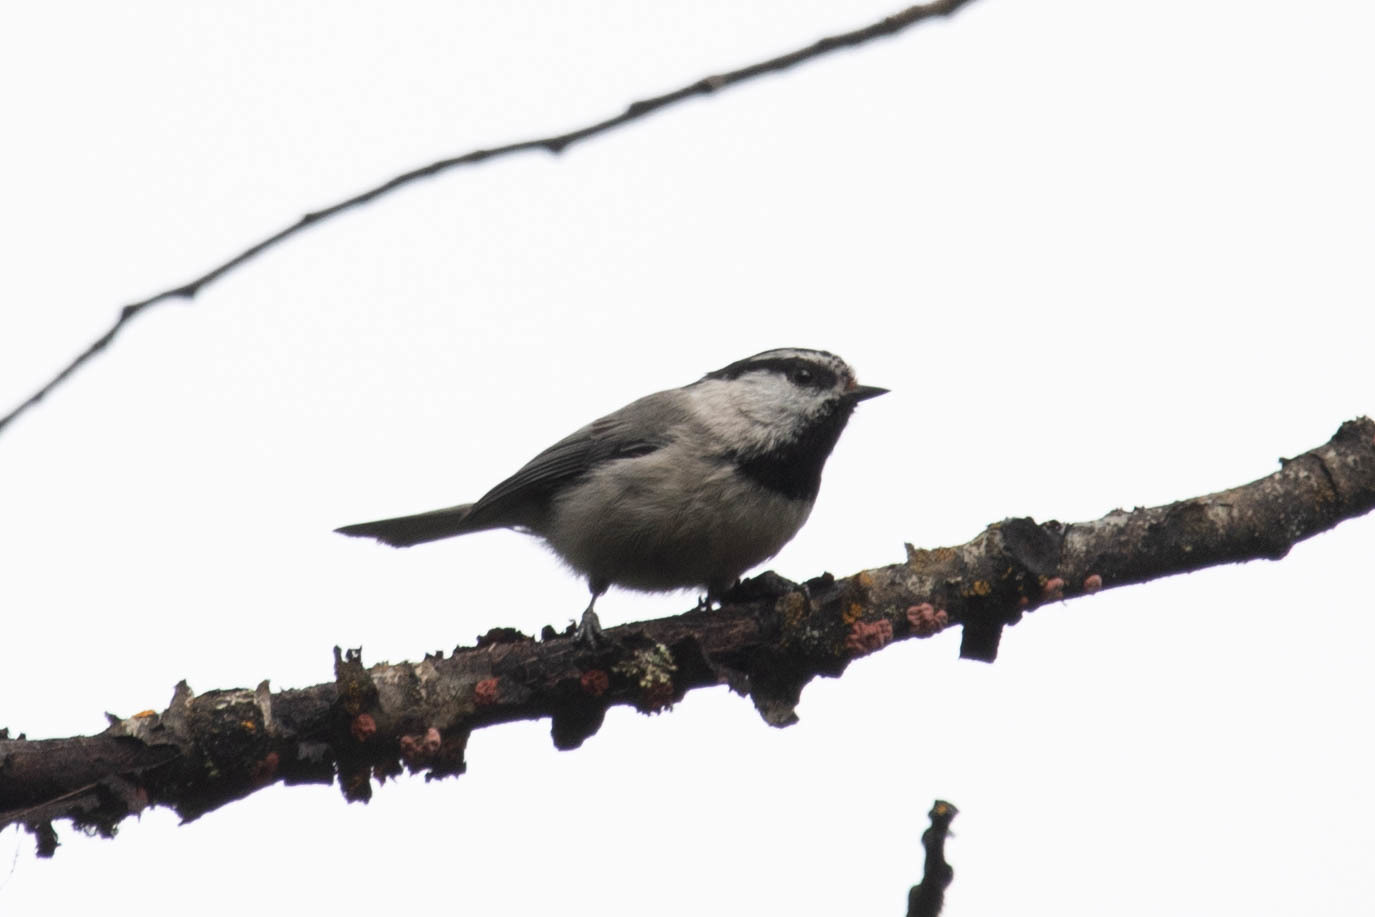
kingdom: Animalia
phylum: Chordata
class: Aves
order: Passeriformes
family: Paridae
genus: Poecile
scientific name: Poecile gambeli
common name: Mountain chickadee
